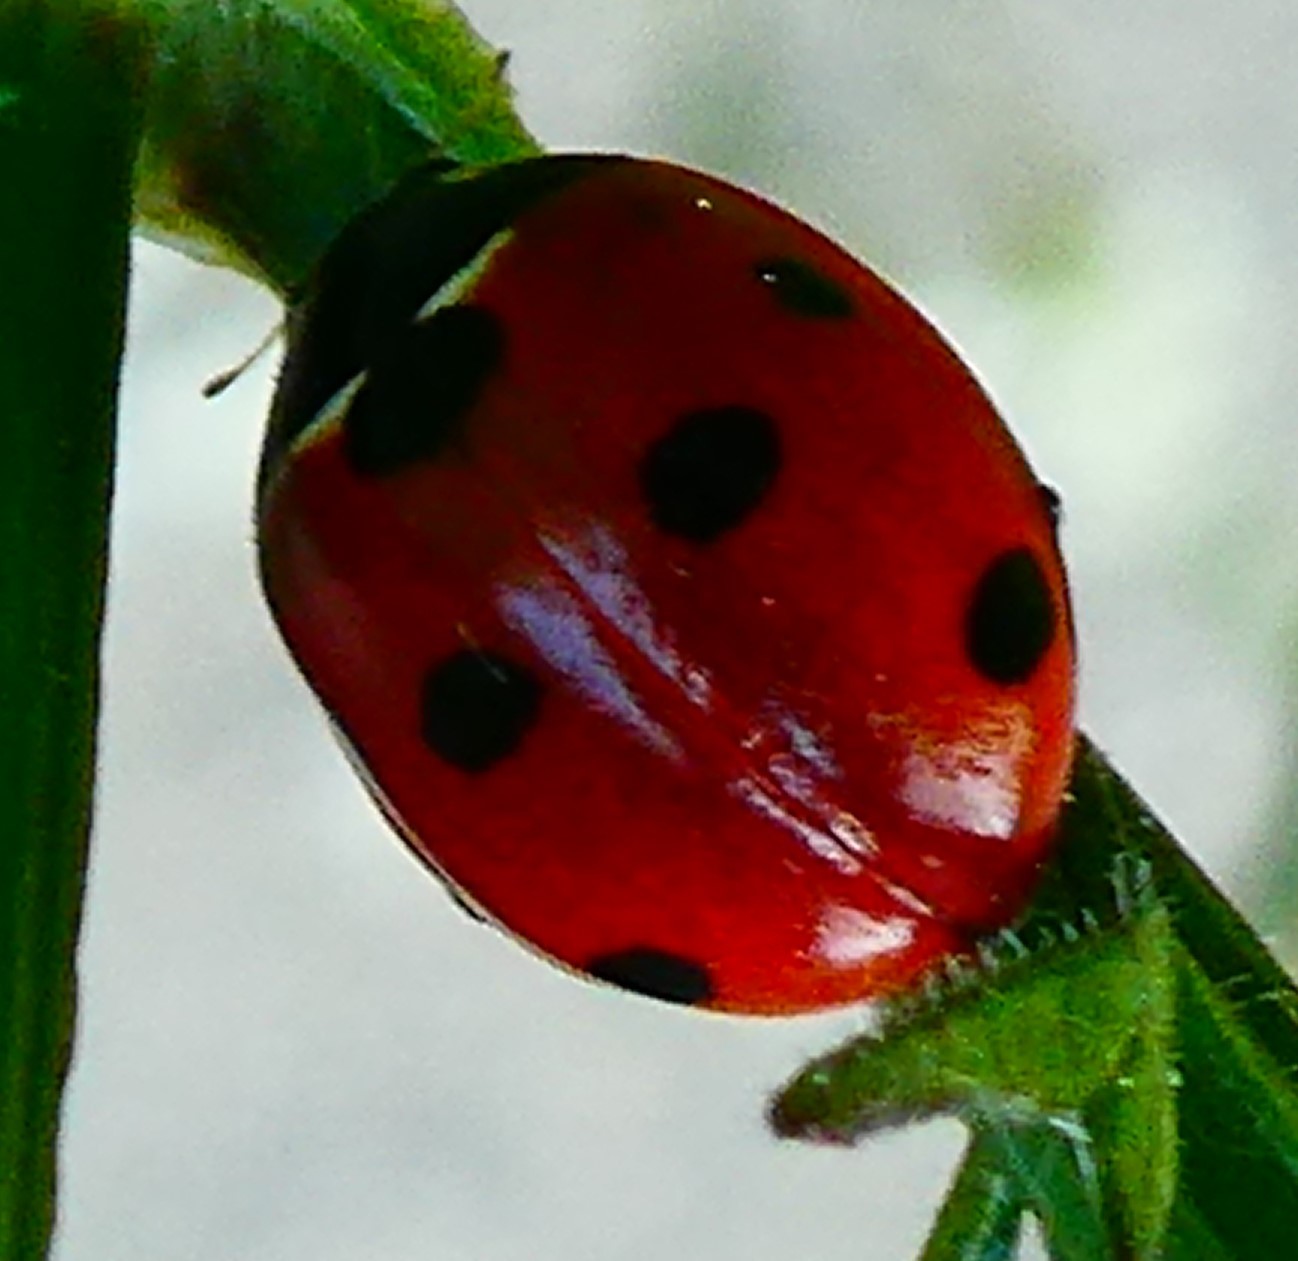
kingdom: Animalia
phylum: Arthropoda
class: Insecta
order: Coleoptera
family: Coccinellidae
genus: Coccinella
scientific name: Coccinella septempunctata
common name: Sevenspotted lady beetle
